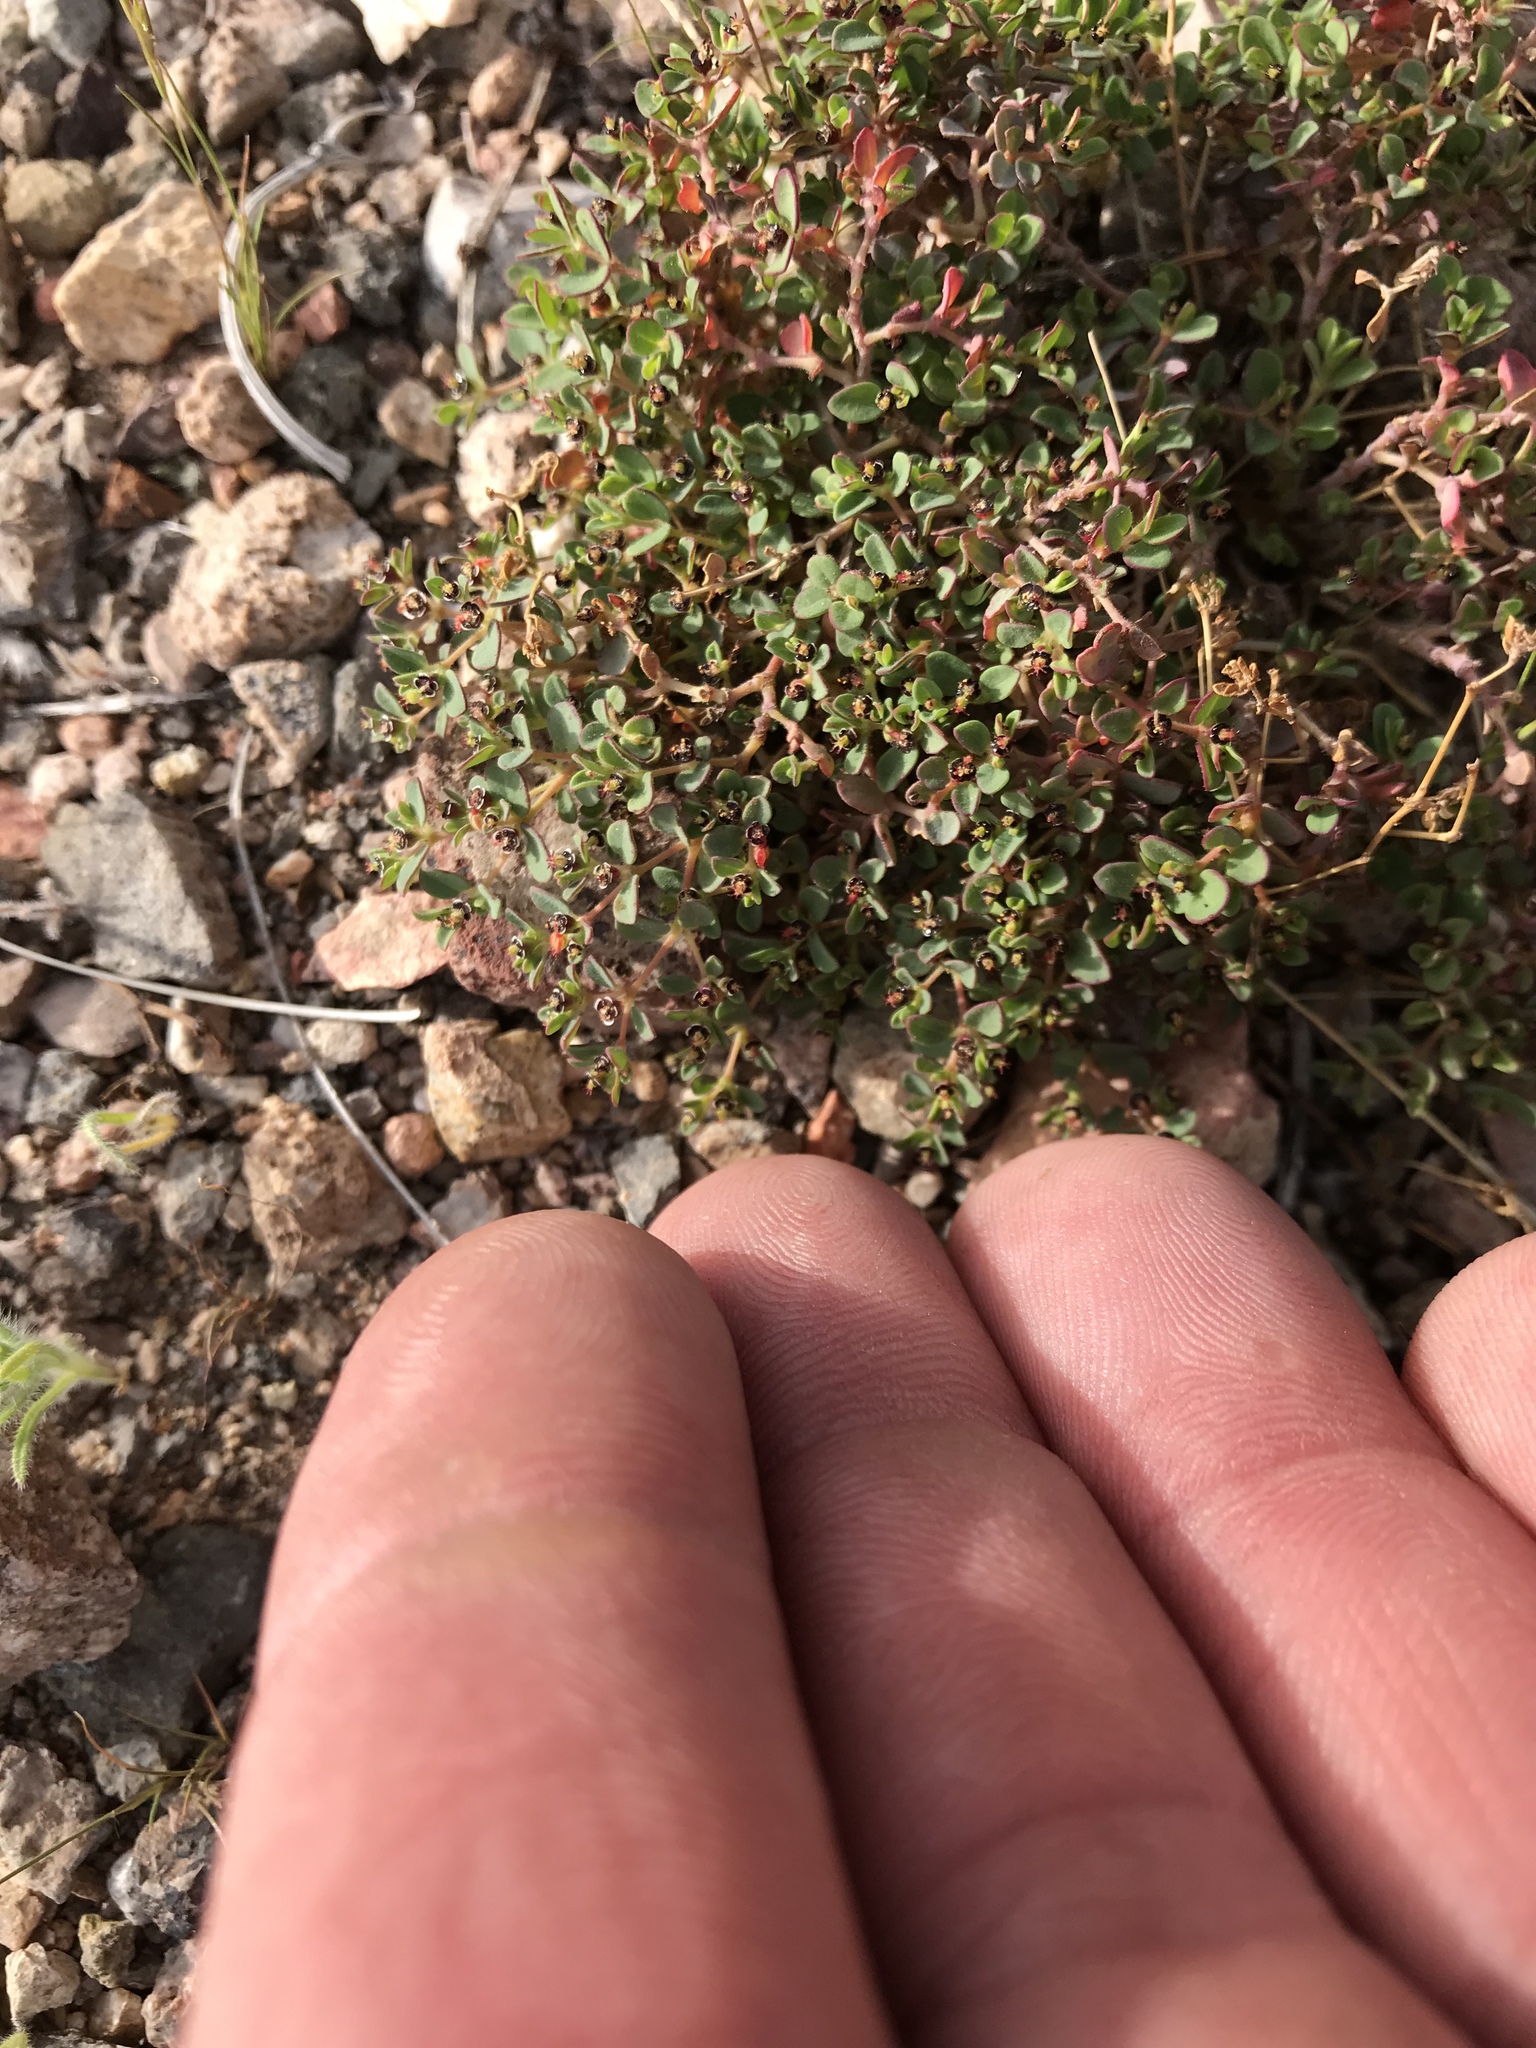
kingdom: Plantae
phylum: Tracheophyta
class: Magnoliopsida
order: Malpighiales
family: Euphorbiaceae
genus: Euphorbia
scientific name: Euphorbia polycarpa
